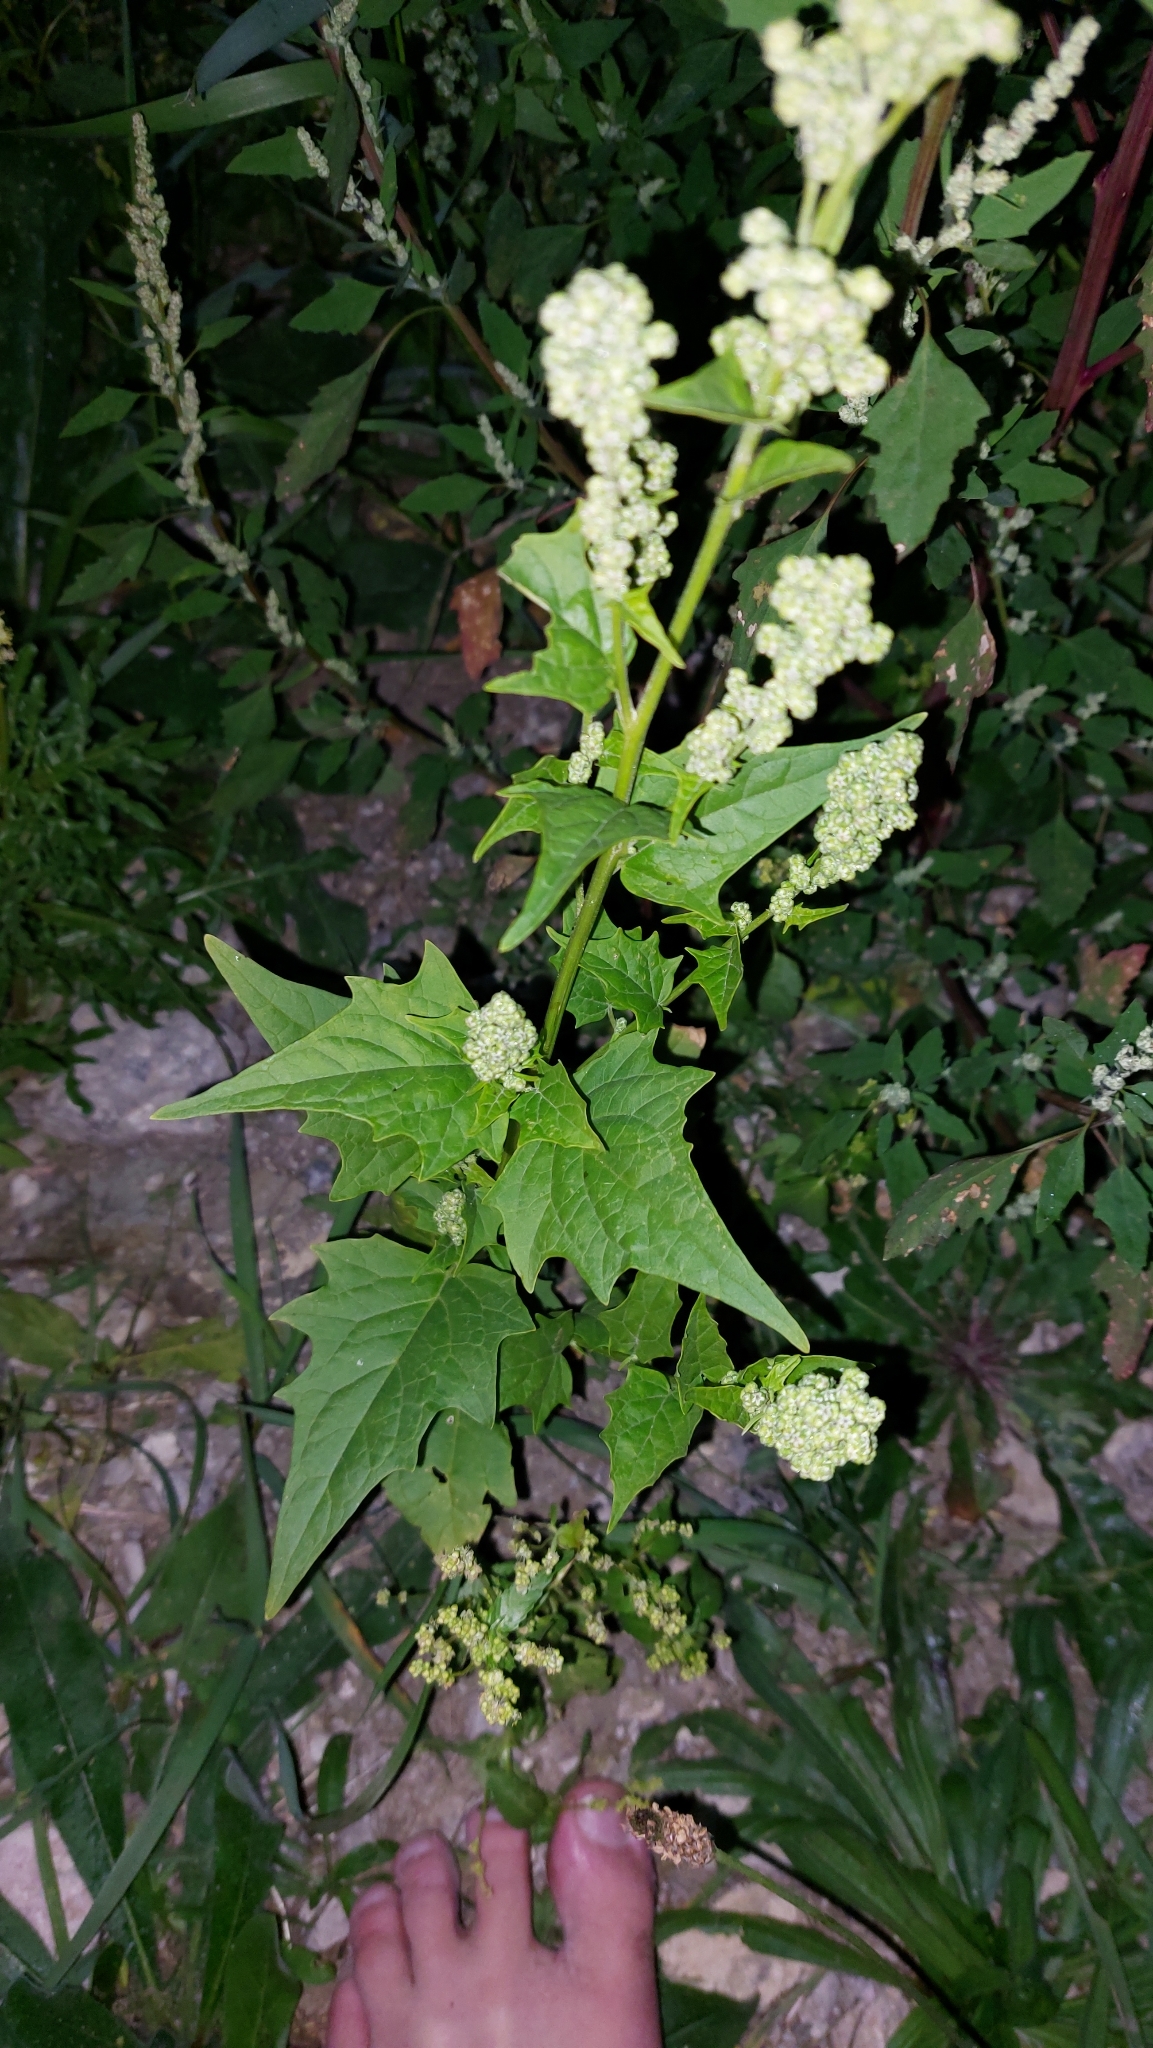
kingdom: Plantae
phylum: Tracheophyta
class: Magnoliopsida
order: Caryophyllales
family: Amaranthaceae
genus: Chenopodiastrum
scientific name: Chenopodiastrum hybridum
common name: Mapleleaf goosefoot
